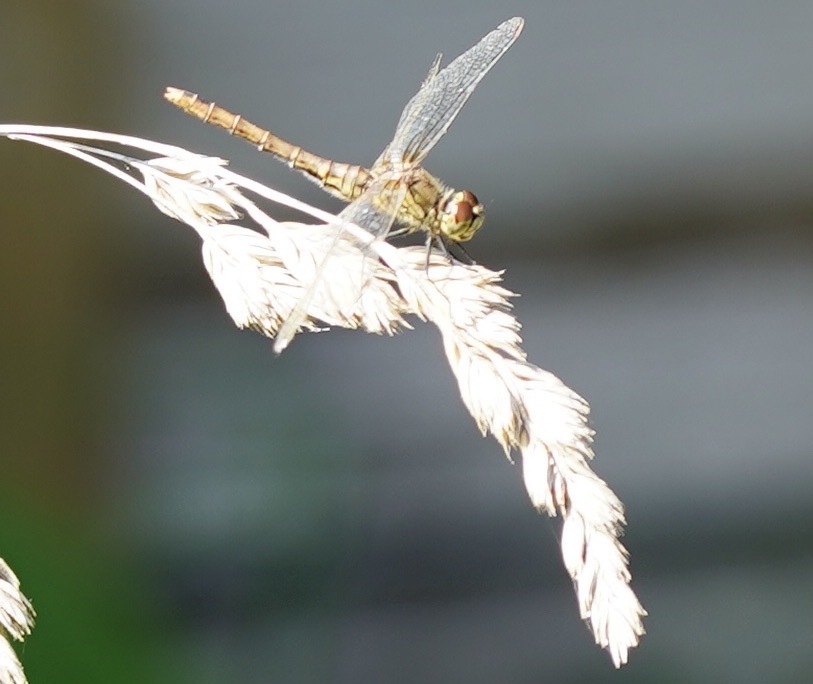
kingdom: Animalia
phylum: Arthropoda
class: Insecta
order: Odonata
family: Libellulidae
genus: Sympetrum
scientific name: Sympetrum sanguineum
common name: Ruddy darter
